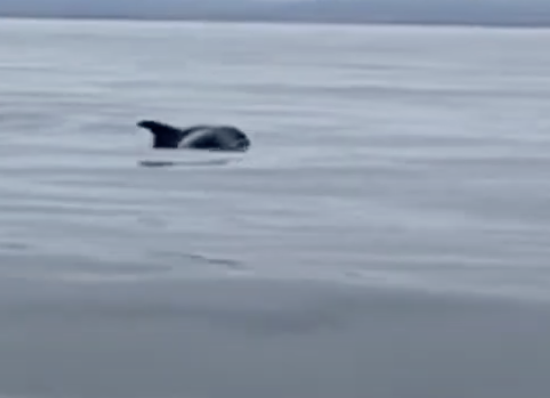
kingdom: Animalia
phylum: Chordata
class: Mammalia
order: Cetacea
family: Delphinidae
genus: Lagenorhynchus
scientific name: Lagenorhynchus albirostris
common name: White-beaked dolphin
